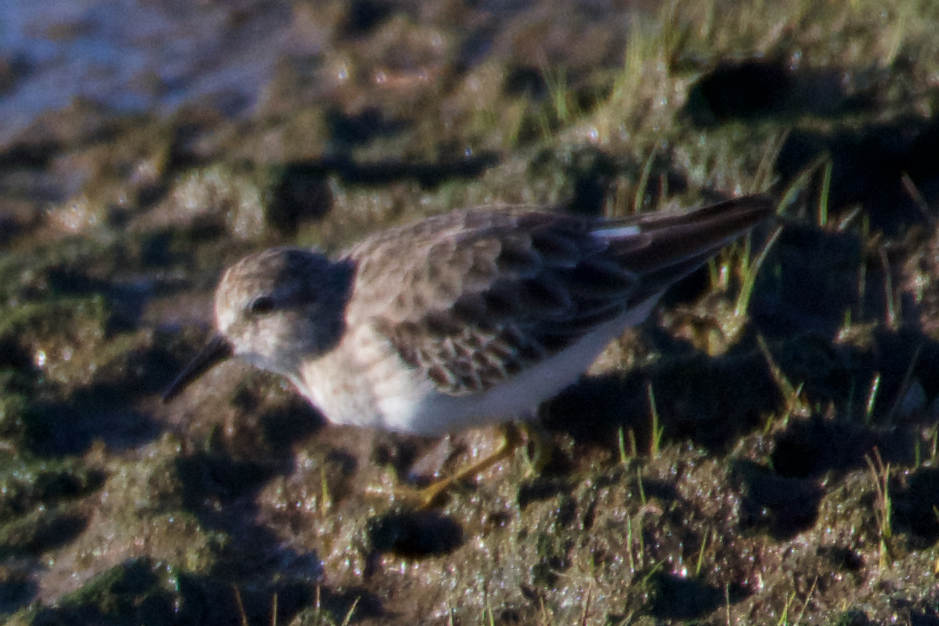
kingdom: Animalia
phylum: Chordata
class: Aves
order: Charadriiformes
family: Scolopacidae
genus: Calidris
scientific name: Calidris minutilla
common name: Least sandpiper
